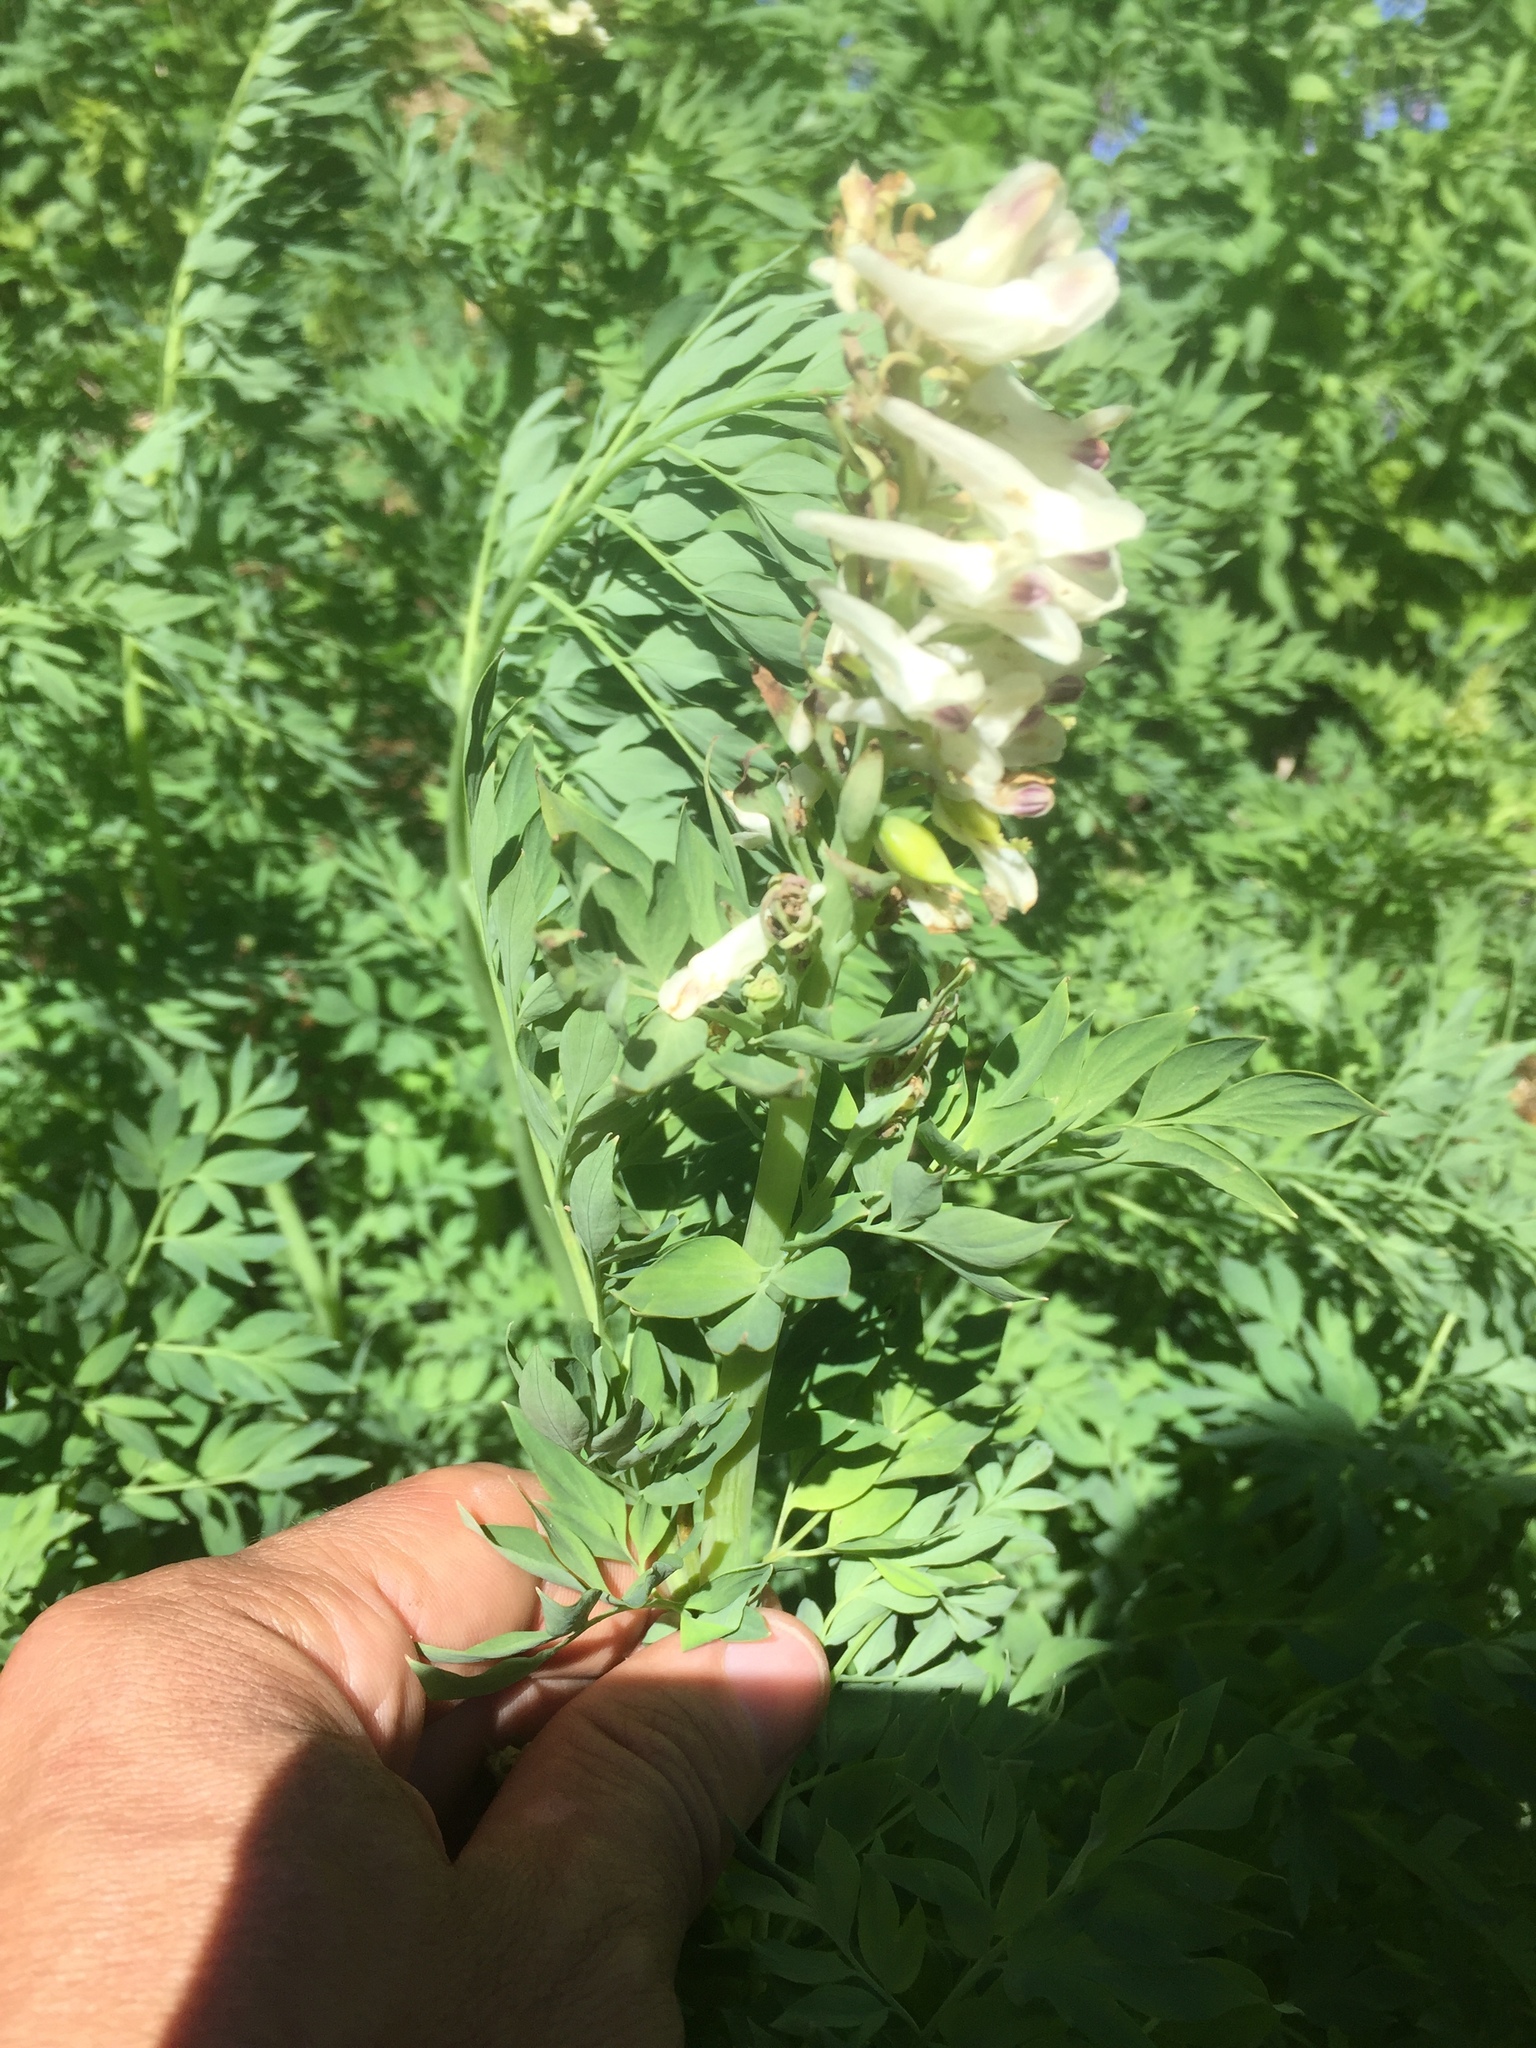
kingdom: Plantae
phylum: Tracheophyta
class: Magnoliopsida
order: Ranunculales
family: Papaveraceae
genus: Corydalis
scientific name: Corydalis caseana
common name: Fitweed
